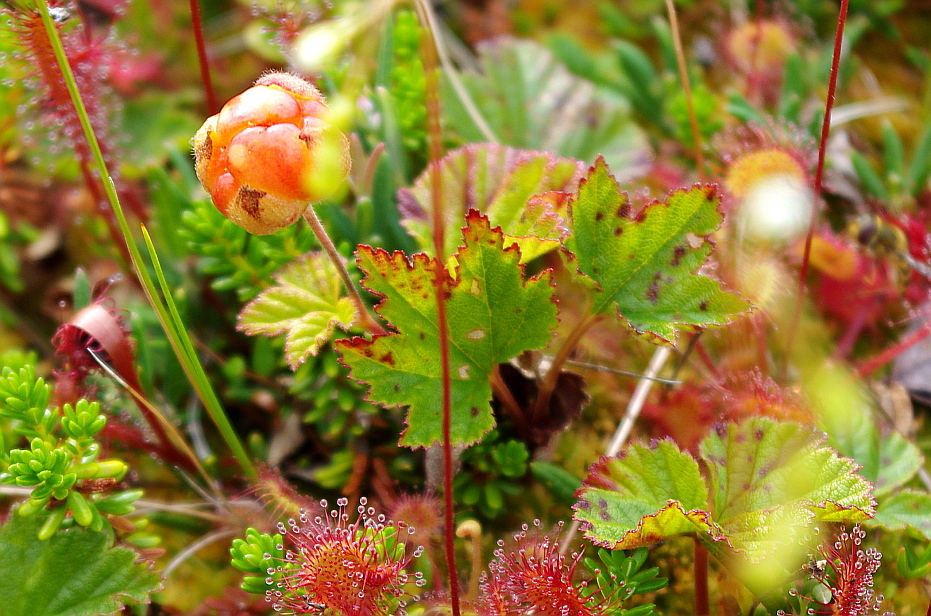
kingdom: Plantae
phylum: Tracheophyta
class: Magnoliopsida
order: Rosales
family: Rosaceae
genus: Rubus
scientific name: Rubus chamaemorus
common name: Cloudberry
